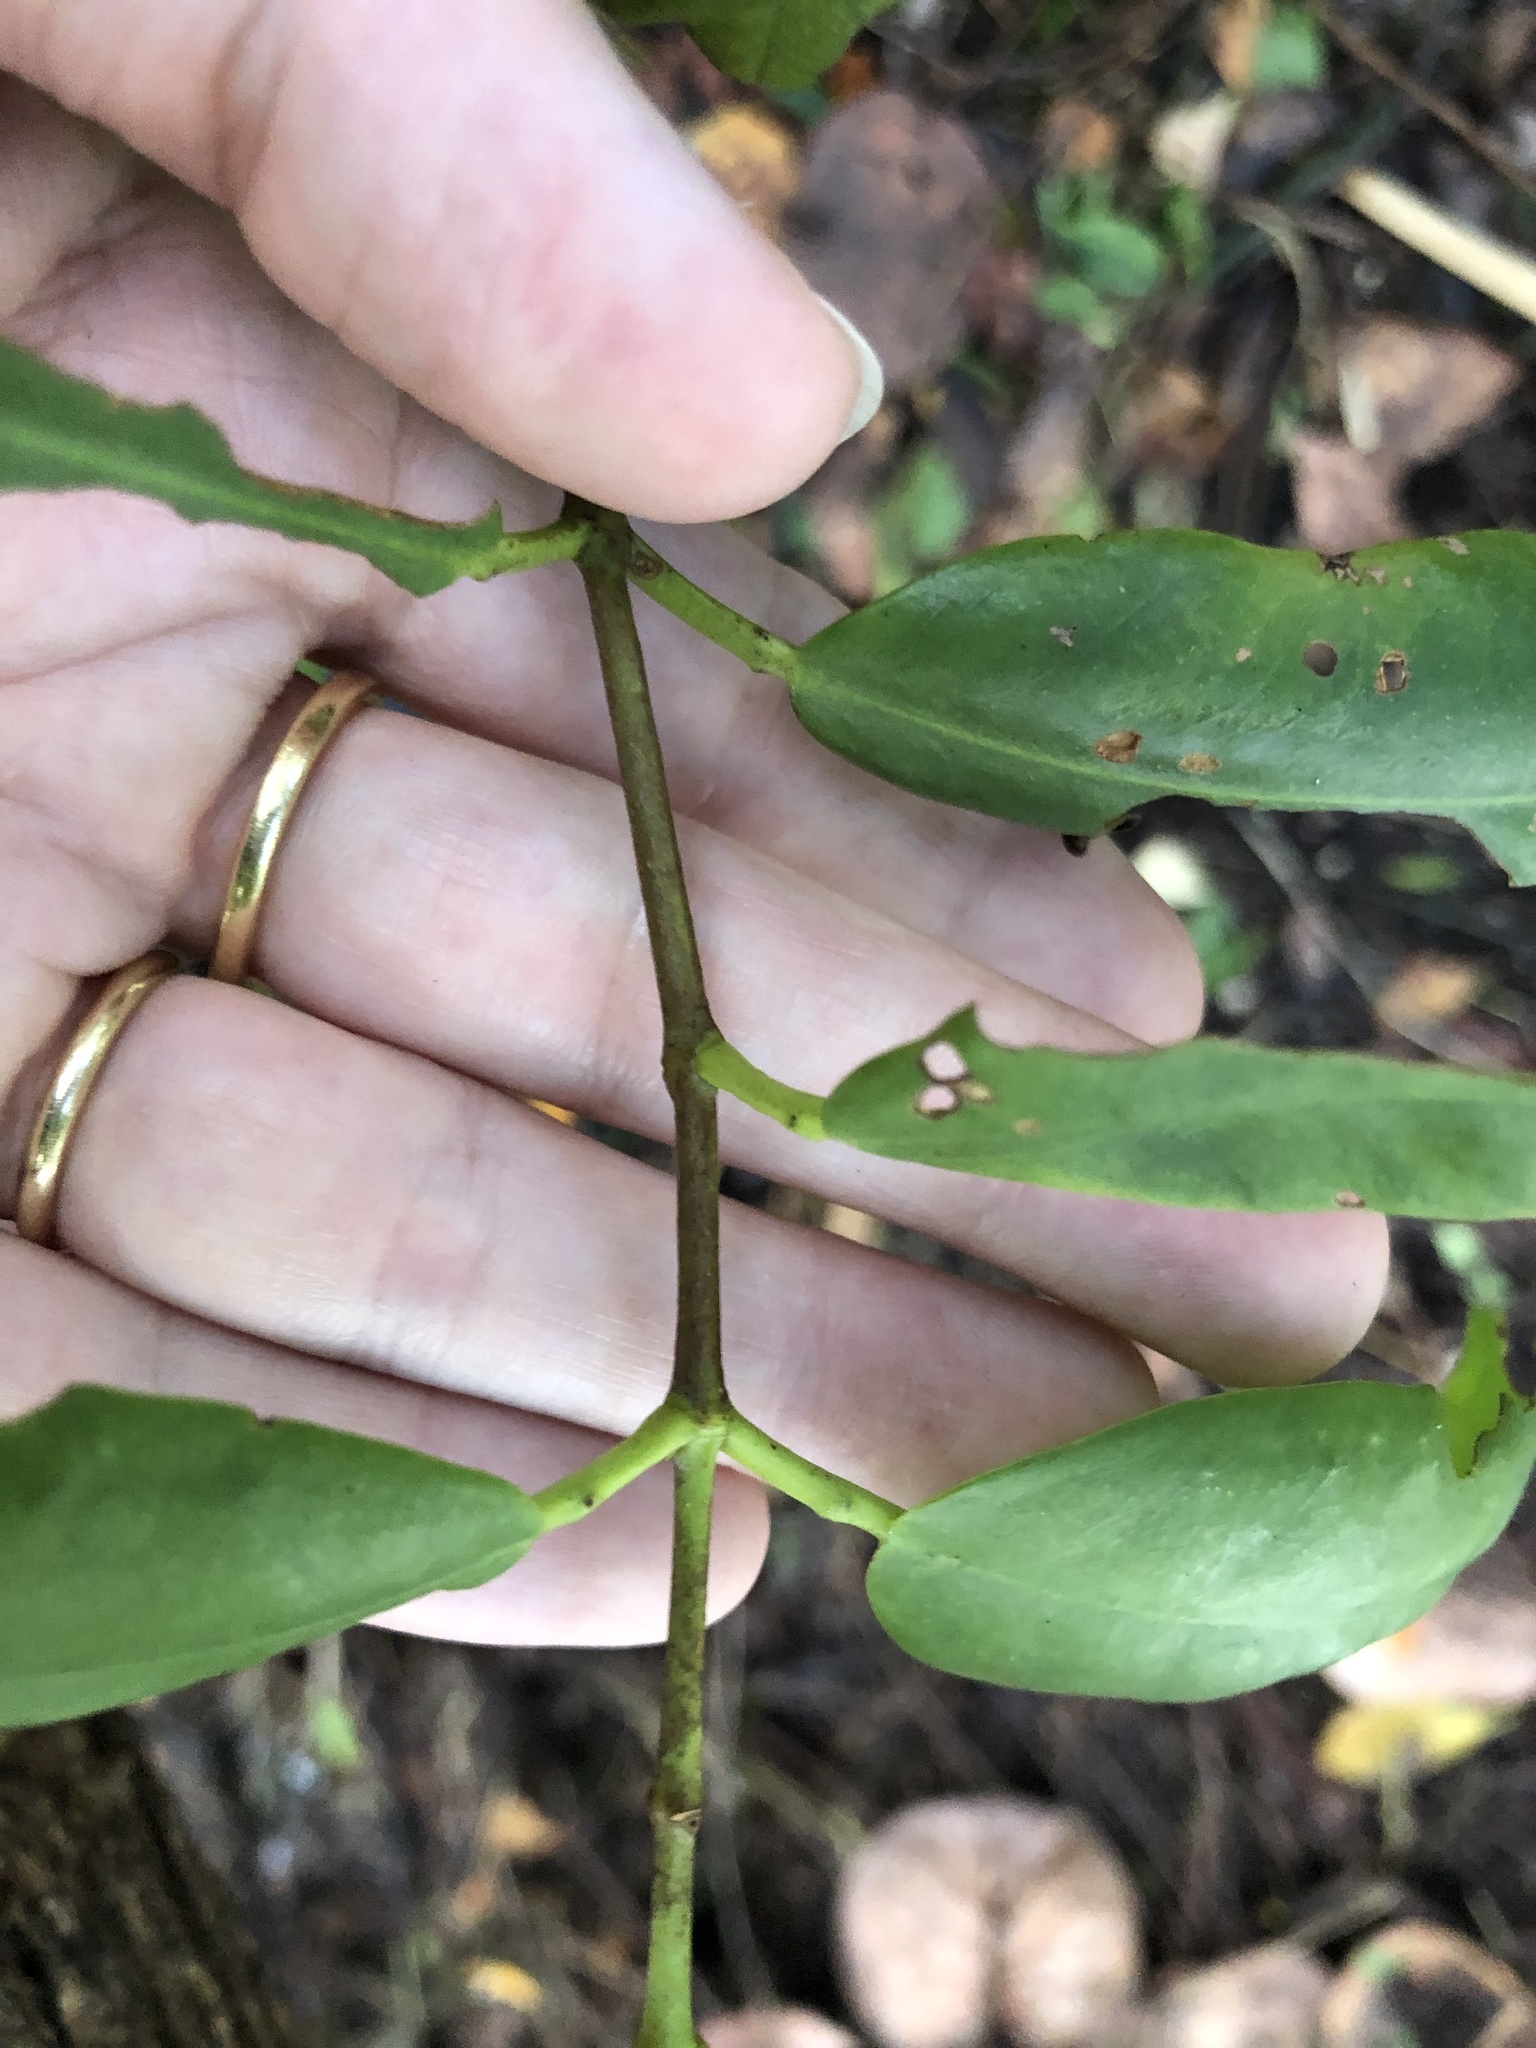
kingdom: Plantae
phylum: Tracheophyta
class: Magnoliopsida
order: Myrtales
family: Combretaceae
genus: Laguncularia
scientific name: Laguncularia racemosa
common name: White mangrove
